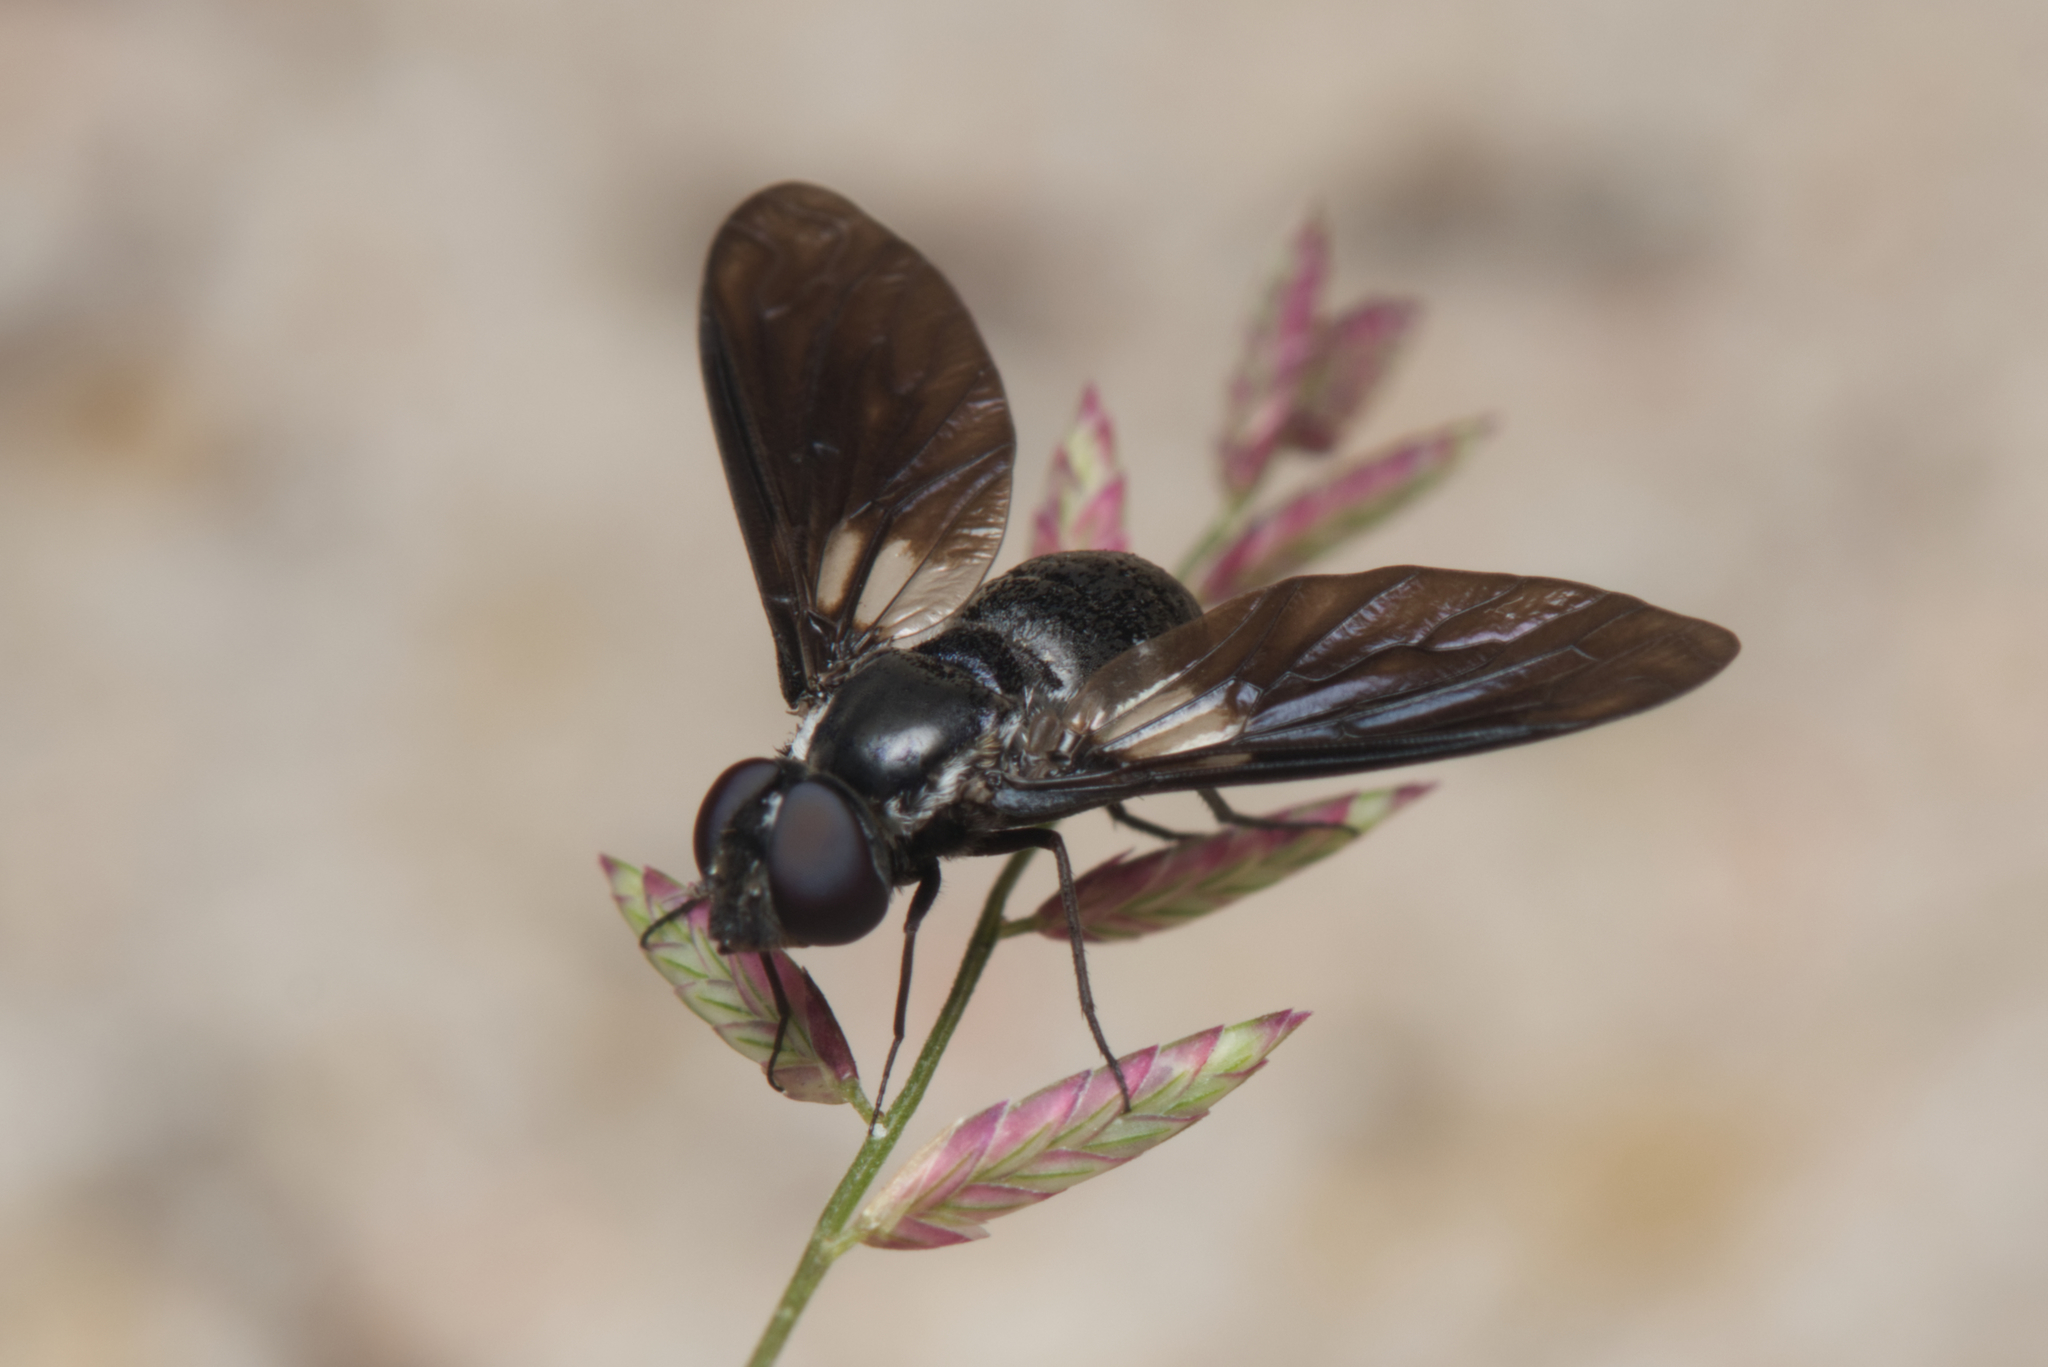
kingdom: Animalia
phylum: Arthropoda
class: Insecta
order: Diptera
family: Bombyliidae
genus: Pseudopenthes
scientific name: Pseudopenthes fenestrata
